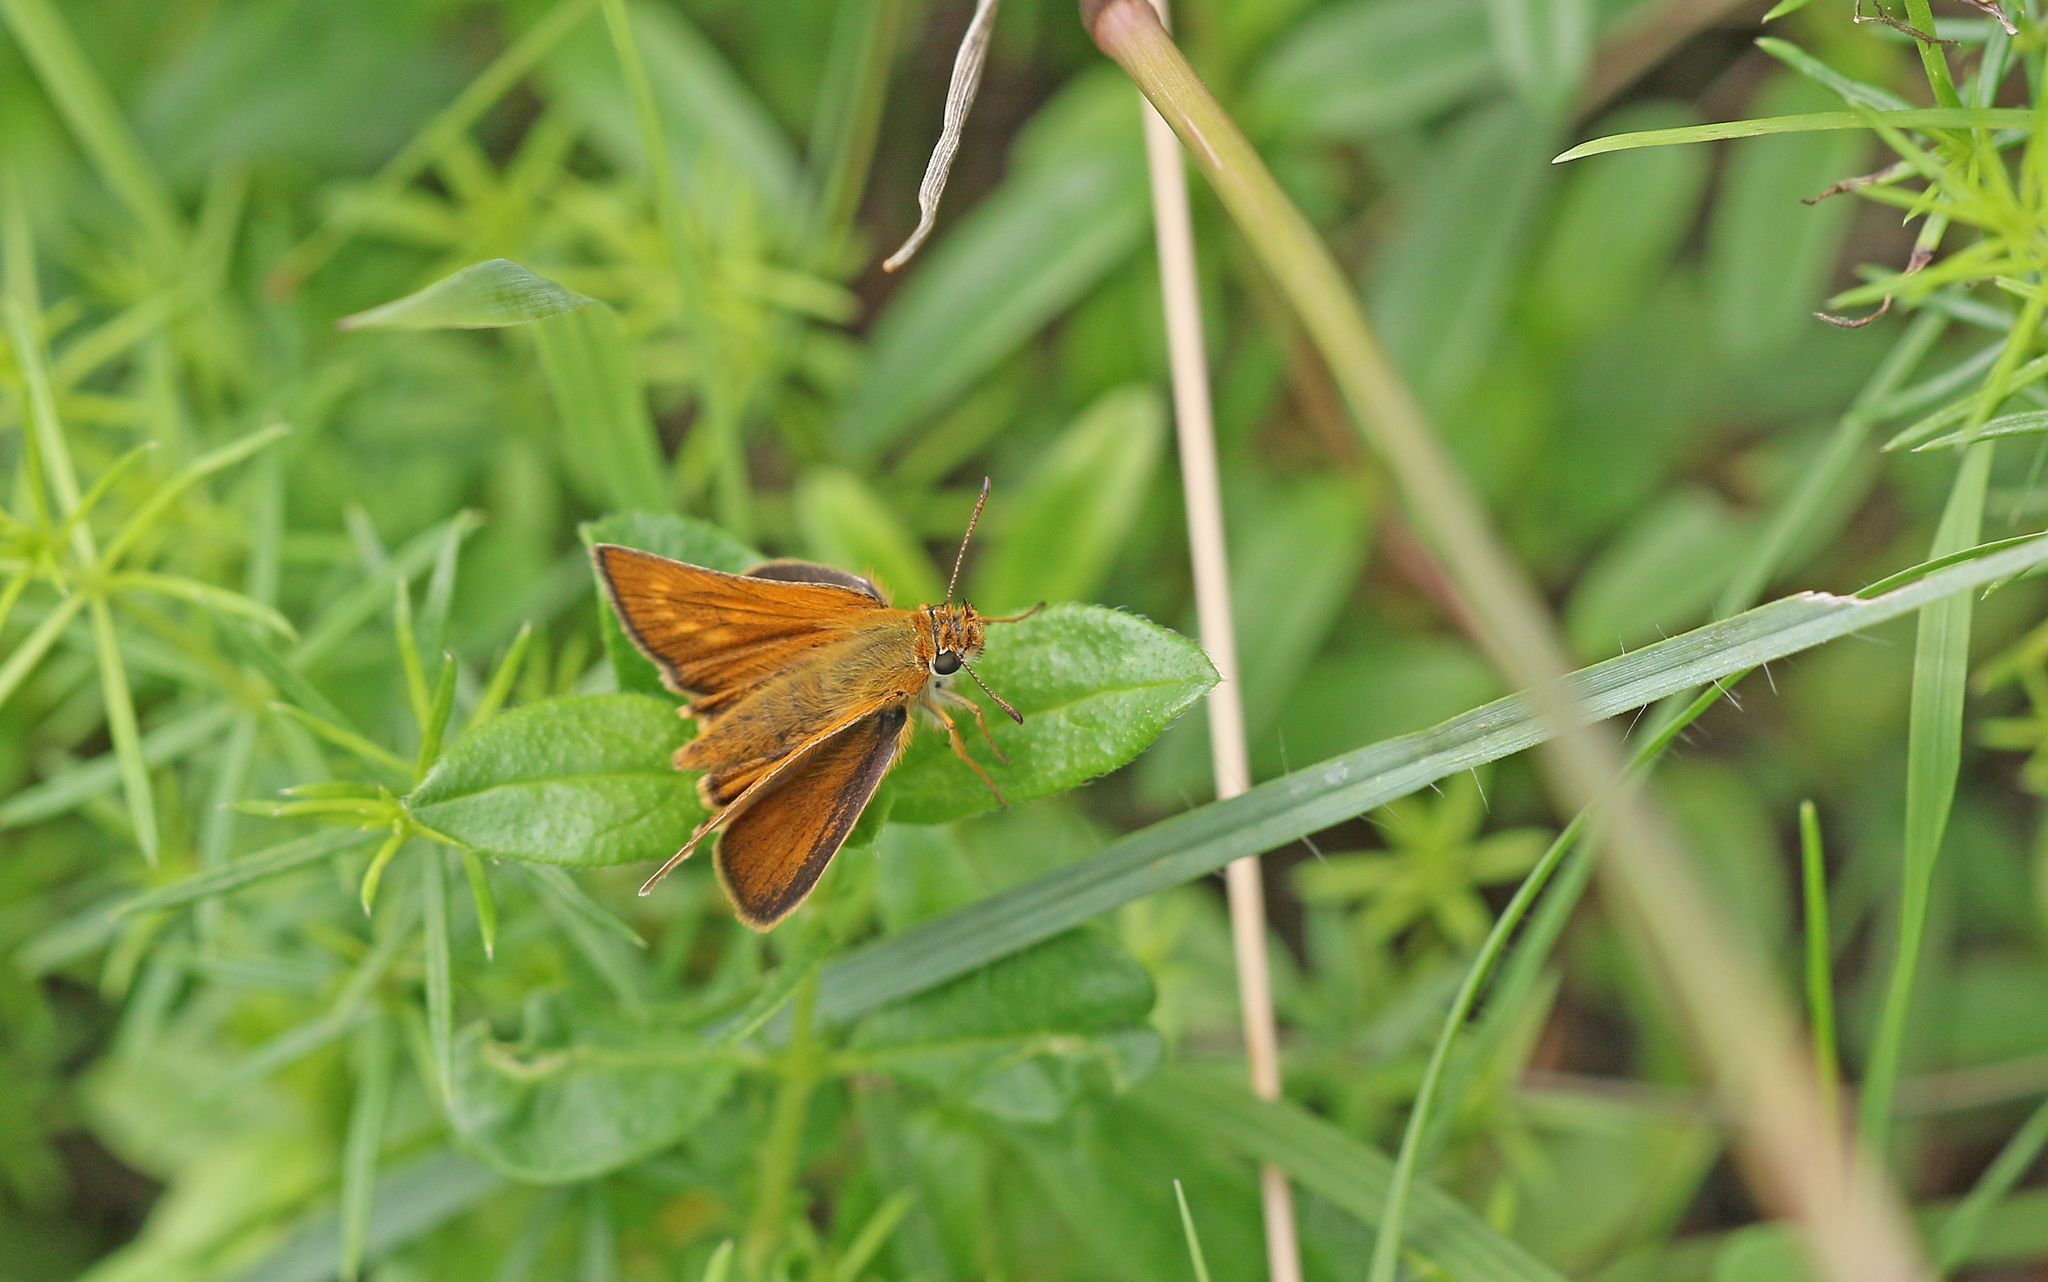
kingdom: Animalia
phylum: Arthropoda
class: Insecta
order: Lepidoptera
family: Hesperiidae
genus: Thymelicus
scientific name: Thymelicus acteon
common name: Lulworth skipper
